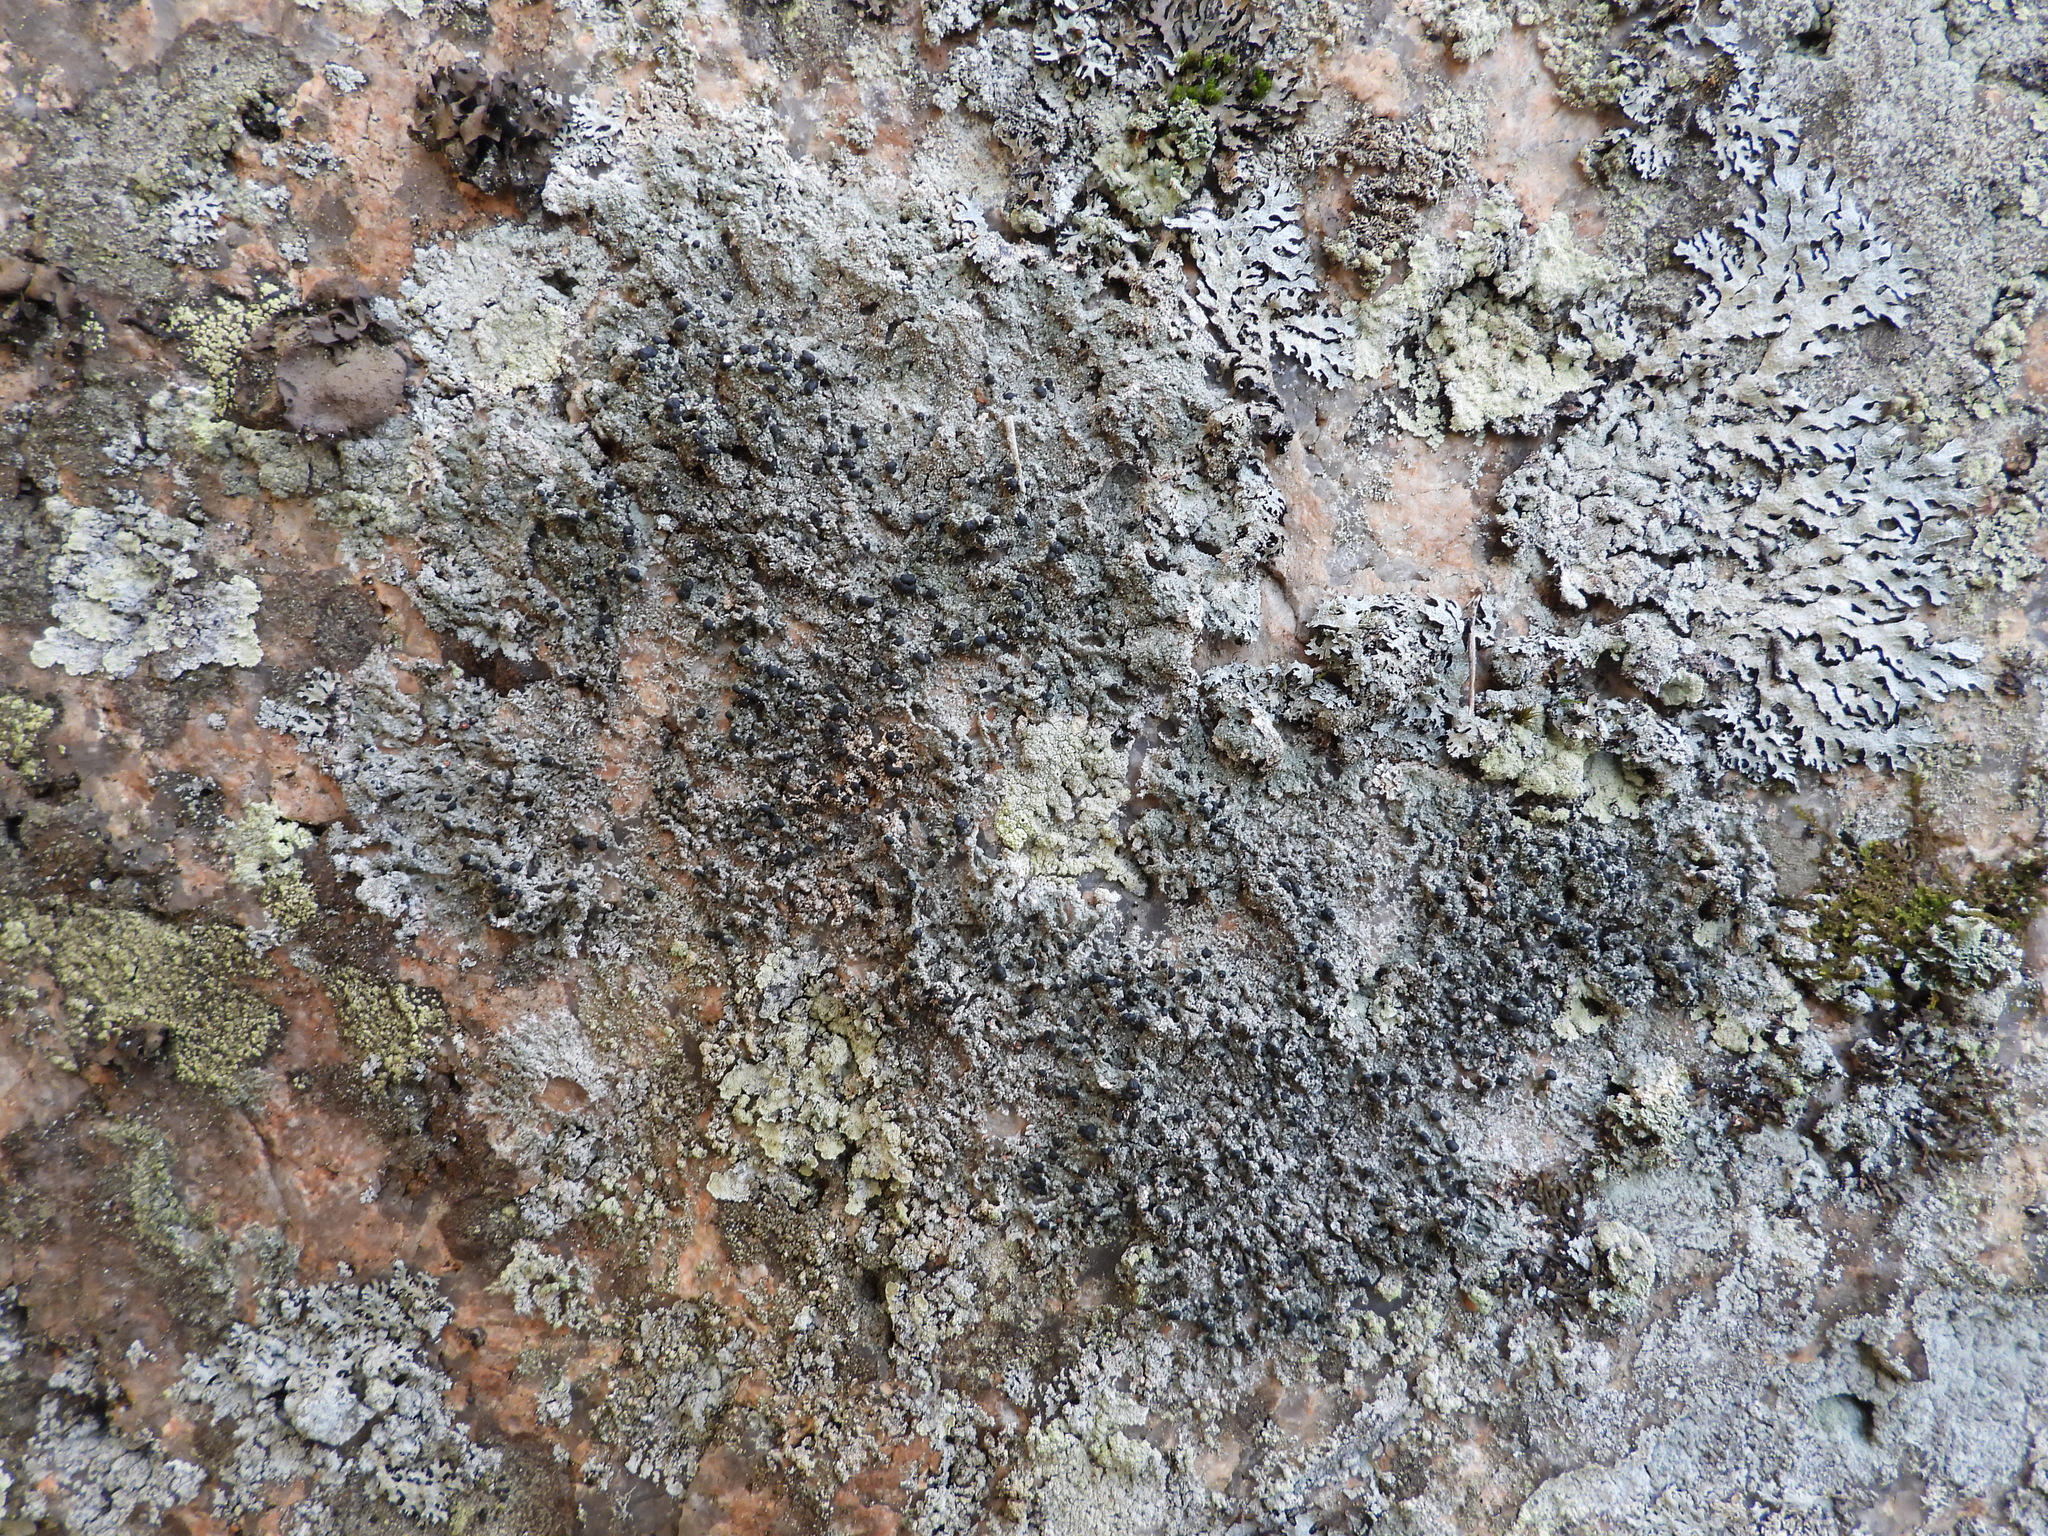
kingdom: Fungi
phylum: Ascomycota
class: Lecanoromycetes
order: Lecanorales
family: Tephromelataceae
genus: Mycoblastus
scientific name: Mycoblastus sanguinarius
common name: Bloody-heart lichen
